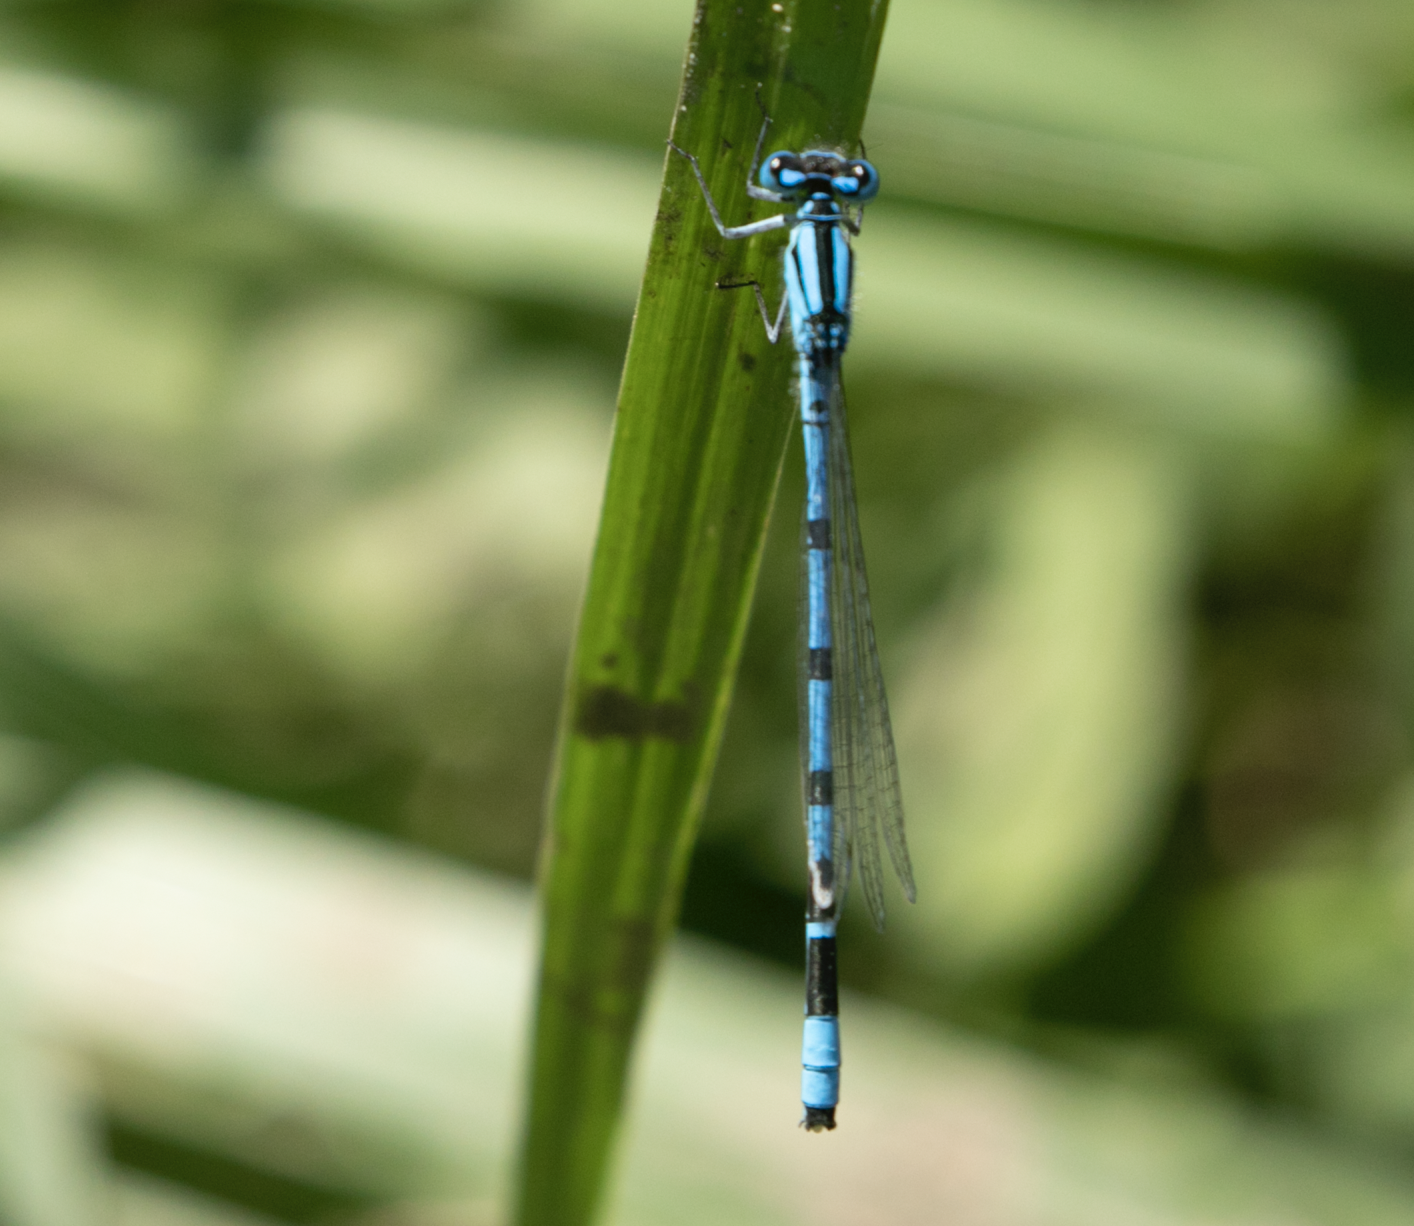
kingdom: Animalia
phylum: Arthropoda
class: Insecta
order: Odonata
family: Coenagrionidae
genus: Enallagma
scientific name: Enallagma cyathigerum
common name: Common blue damselfly
